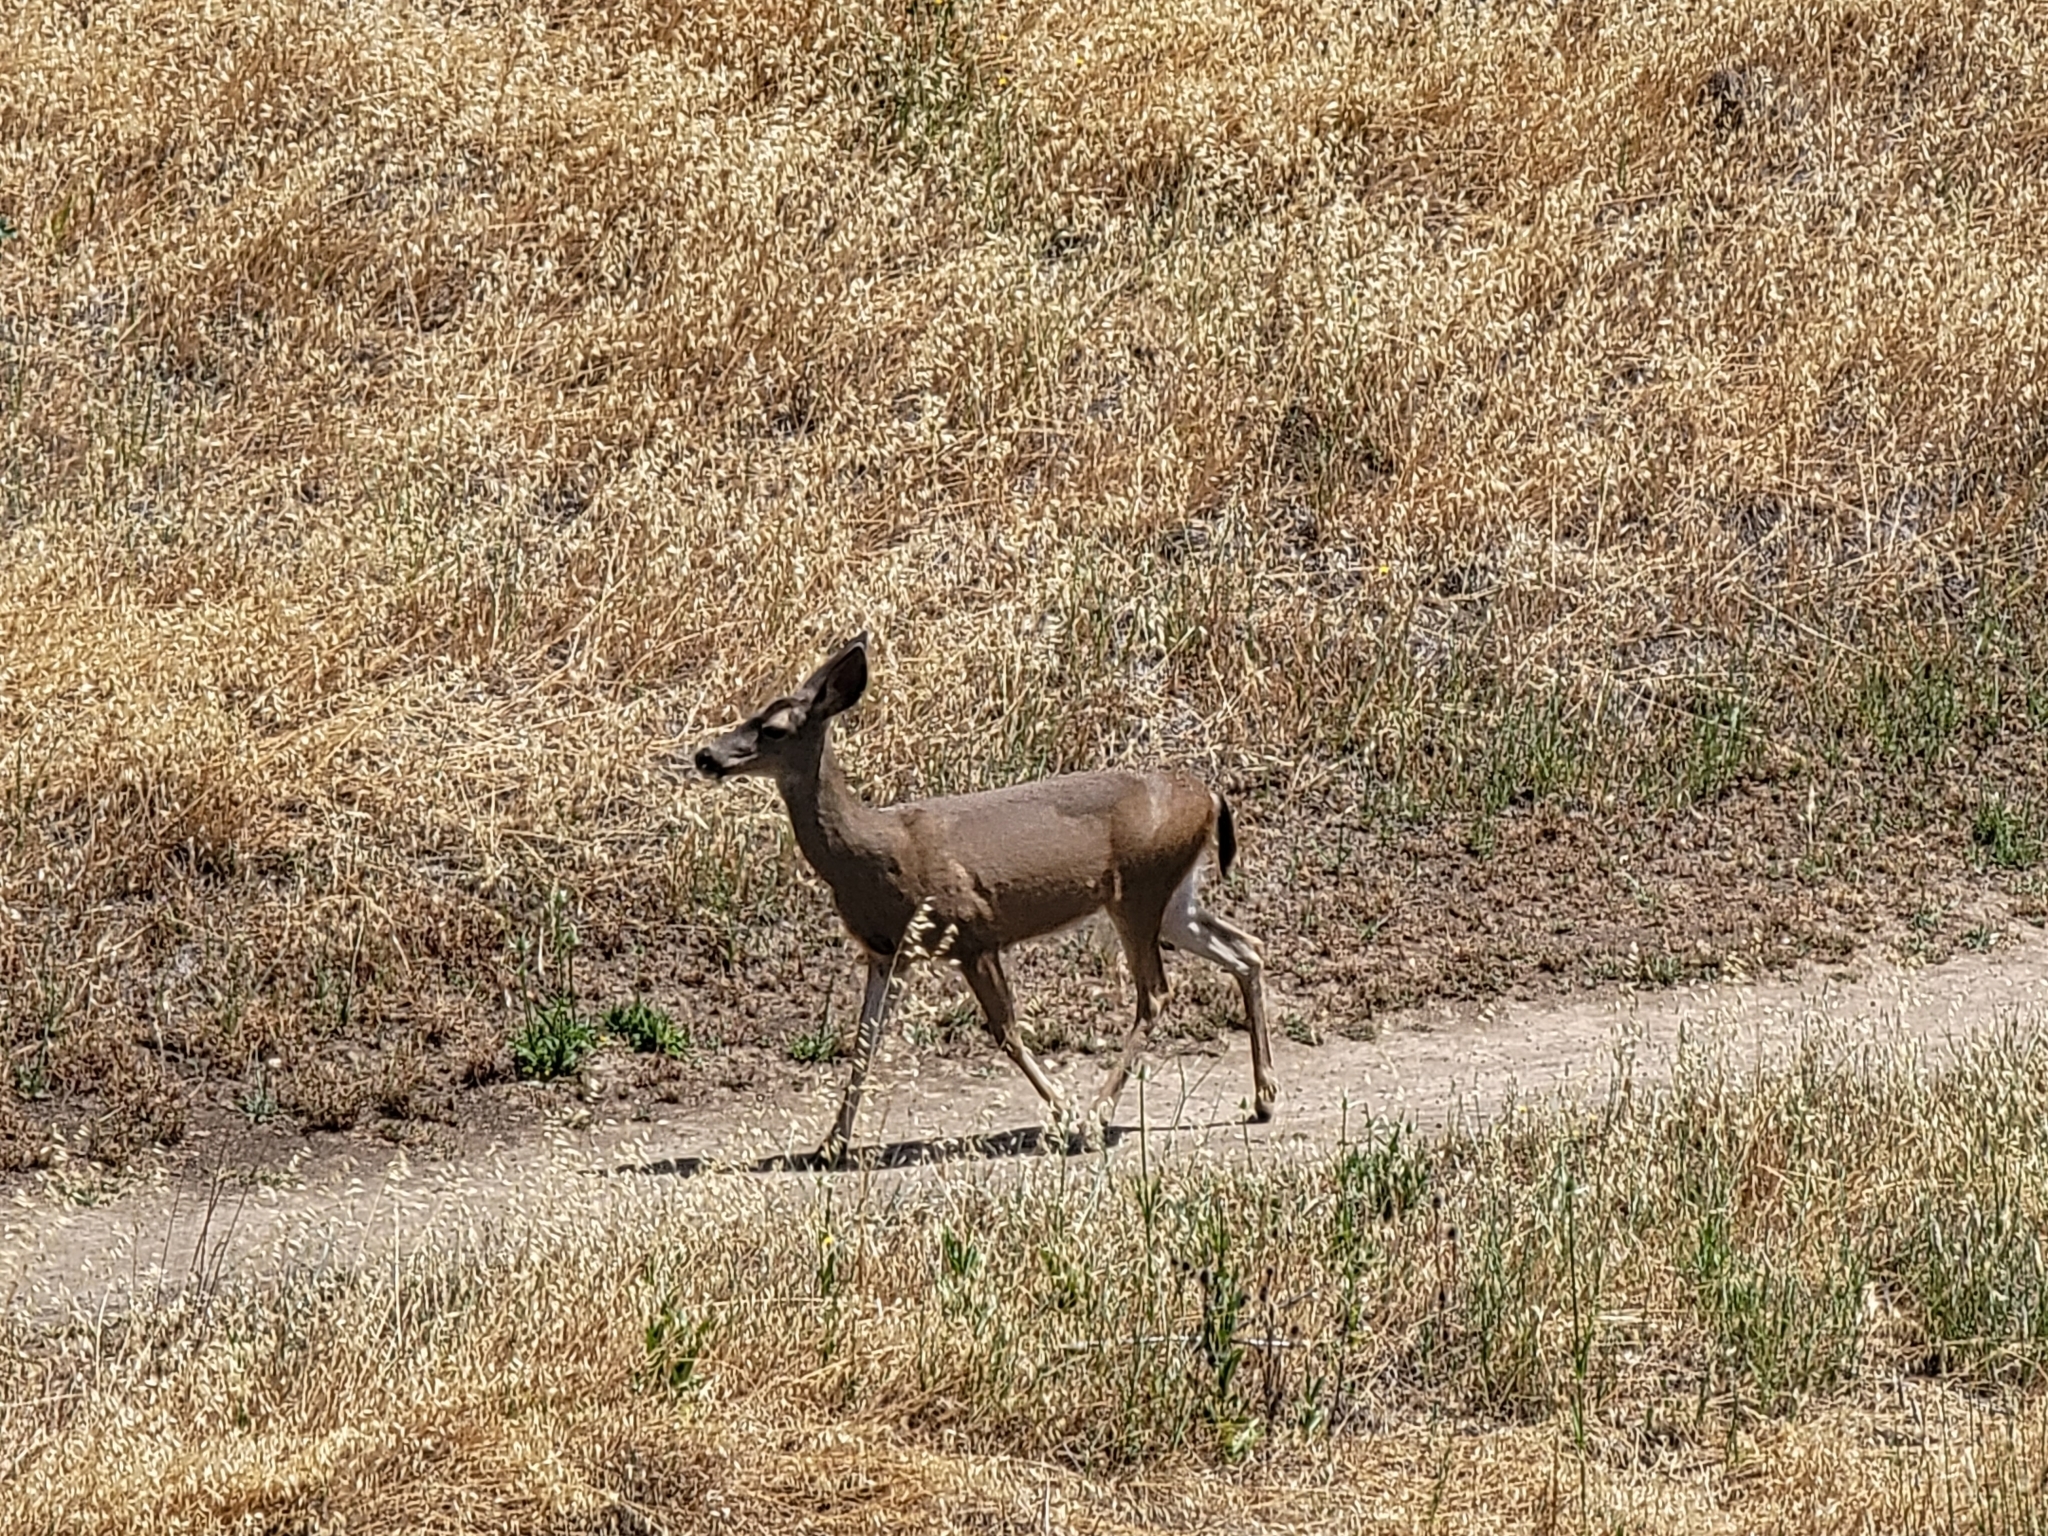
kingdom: Animalia
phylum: Chordata
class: Mammalia
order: Artiodactyla
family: Cervidae
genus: Odocoileus
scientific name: Odocoileus hemionus
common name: Mule deer
